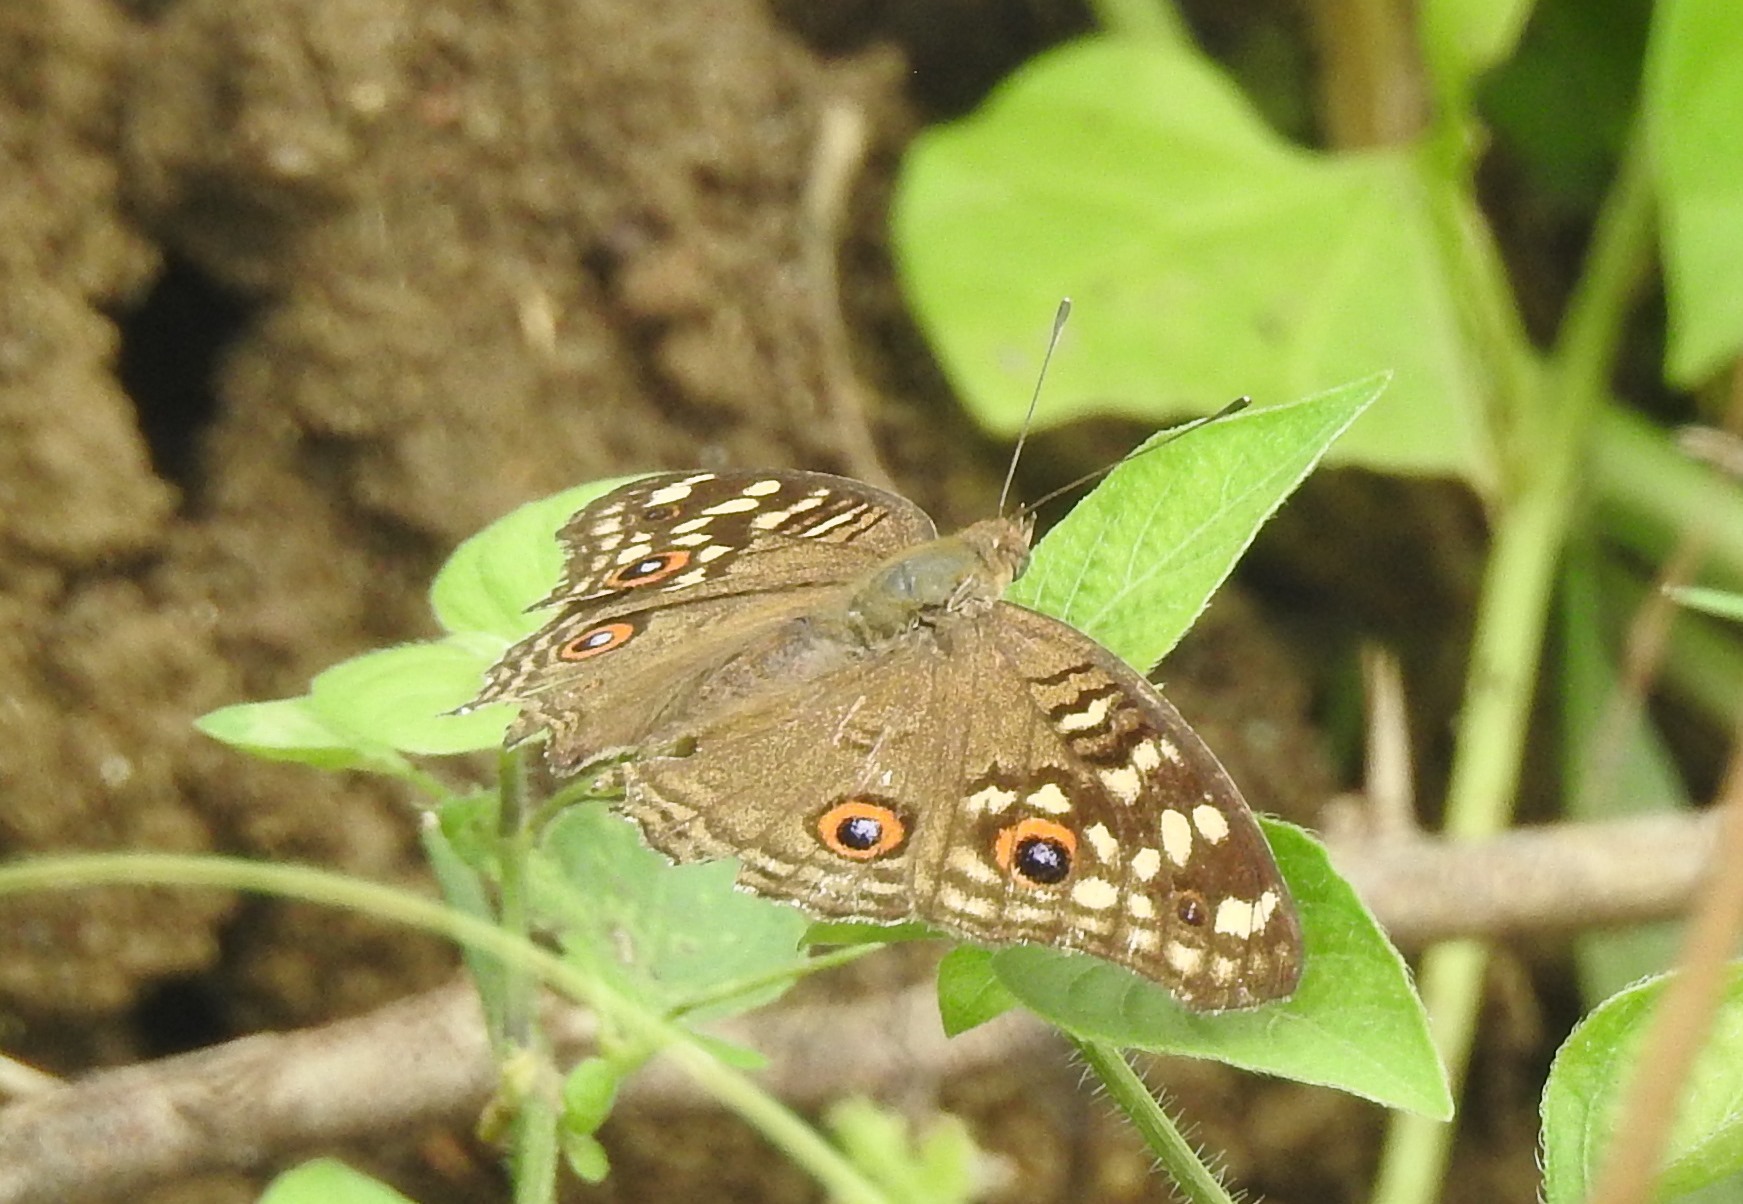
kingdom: Animalia
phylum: Arthropoda
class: Insecta
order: Lepidoptera
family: Nymphalidae
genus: Junonia
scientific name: Junonia lemonias
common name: Lemon pansy
